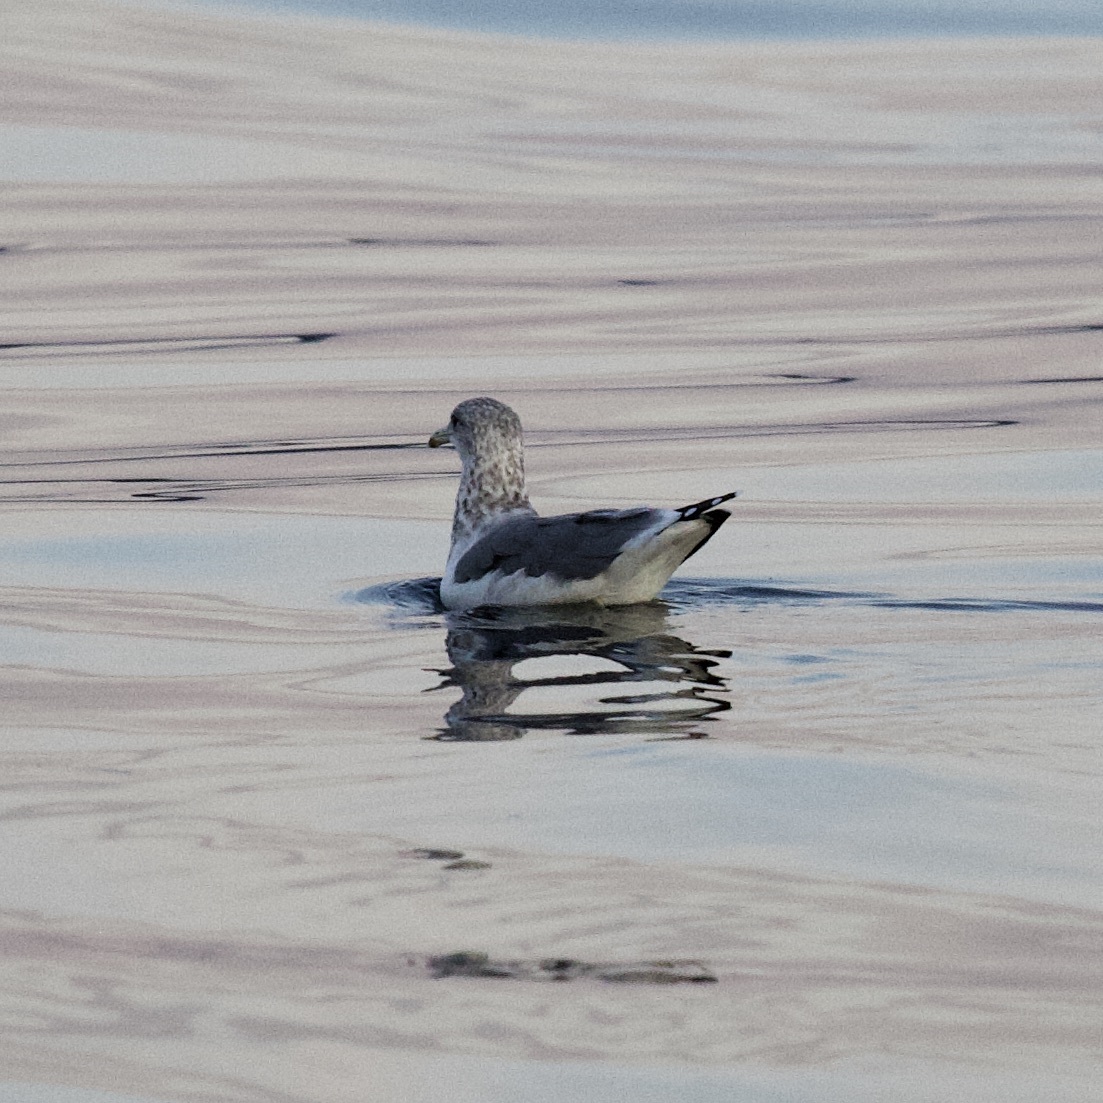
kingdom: Animalia
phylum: Chordata
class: Aves
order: Charadriiformes
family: Laridae
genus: Larus
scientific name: Larus californicus
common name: California gull
